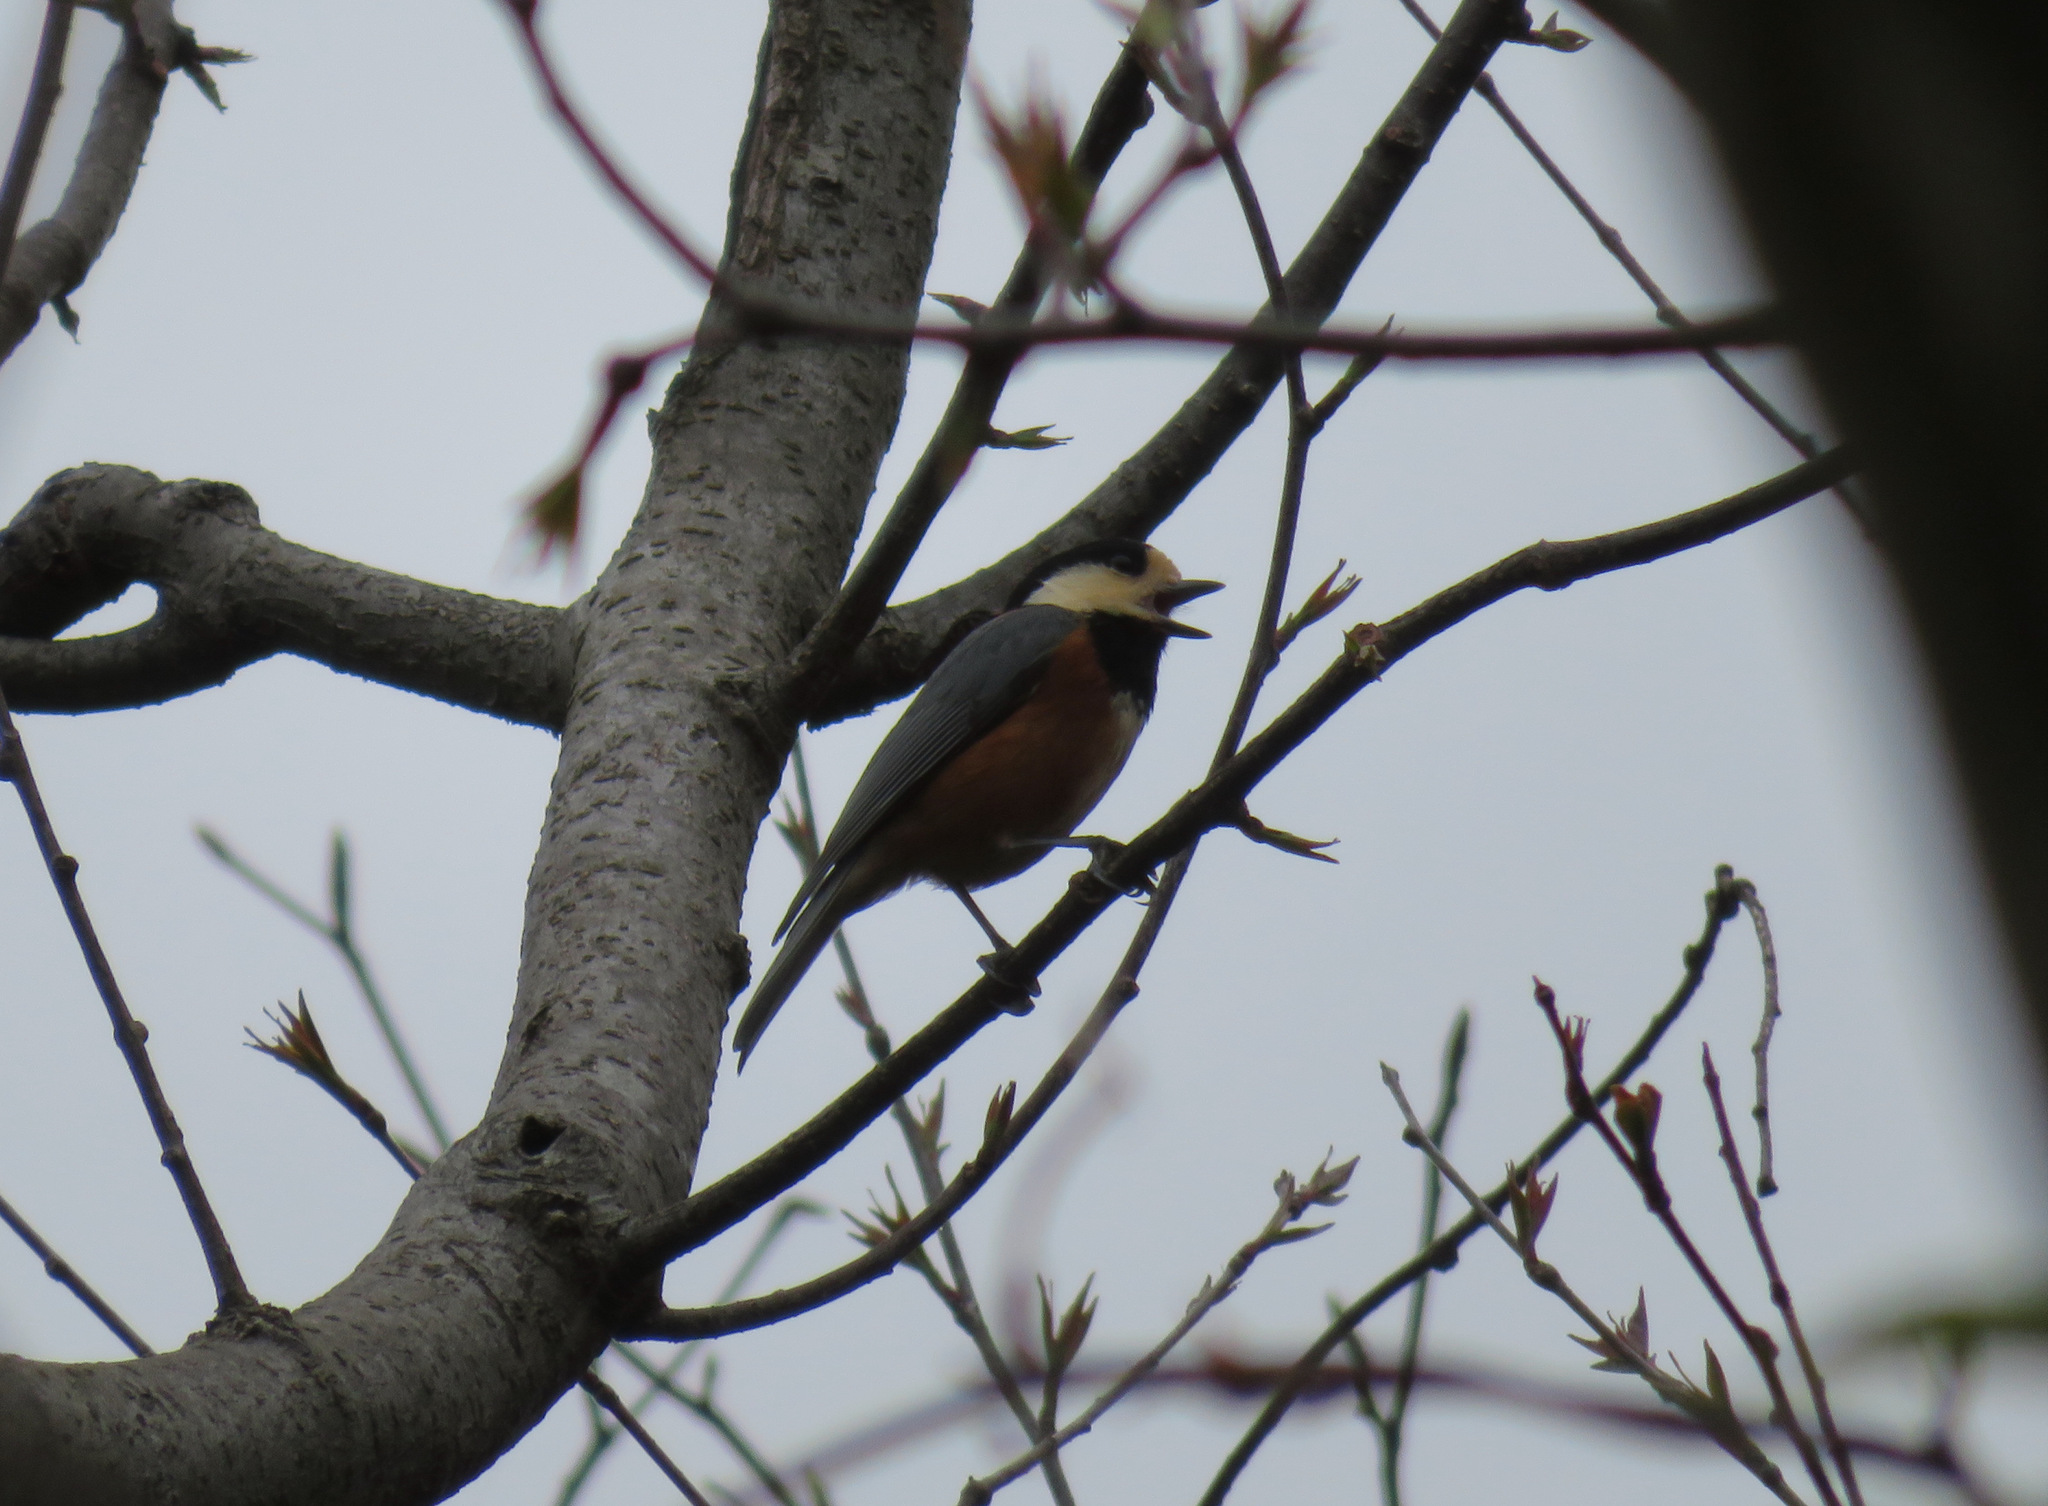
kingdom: Animalia
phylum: Chordata
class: Aves
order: Passeriformes
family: Paridae
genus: Poecile
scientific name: Poecile varius
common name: Varied tit
